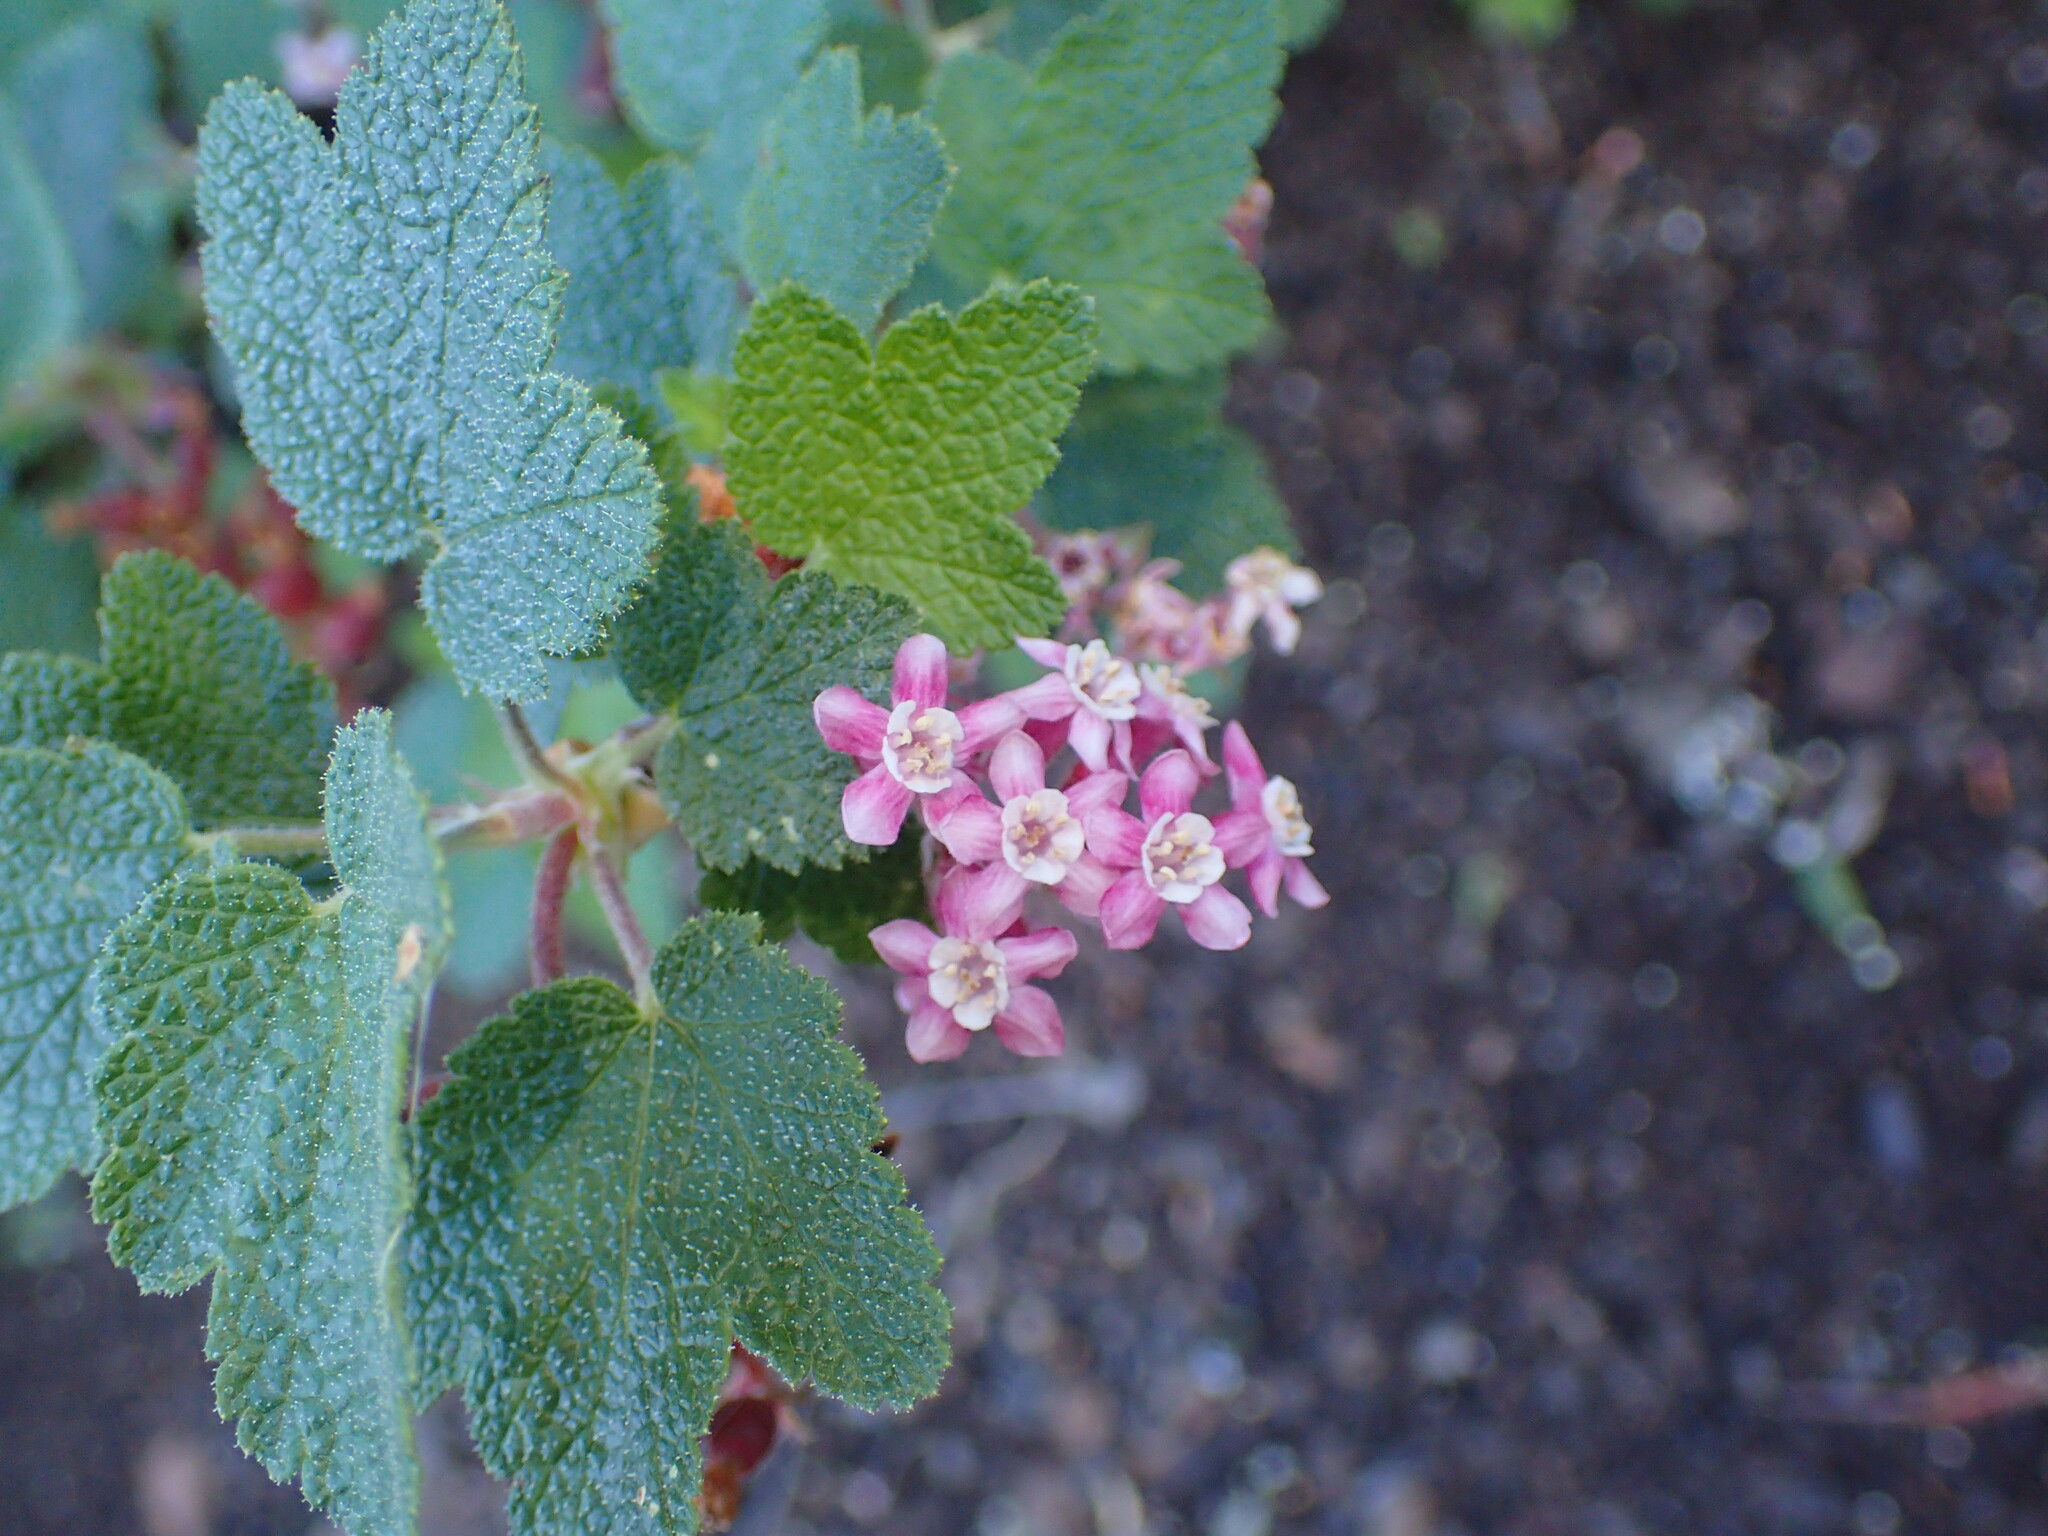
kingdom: Plantae
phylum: Tracheophyta
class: Magnoliopsida
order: Saxifragales
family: Grossulariaceae
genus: Ribes
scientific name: Ribes malvaceum
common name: Chaparral currant
